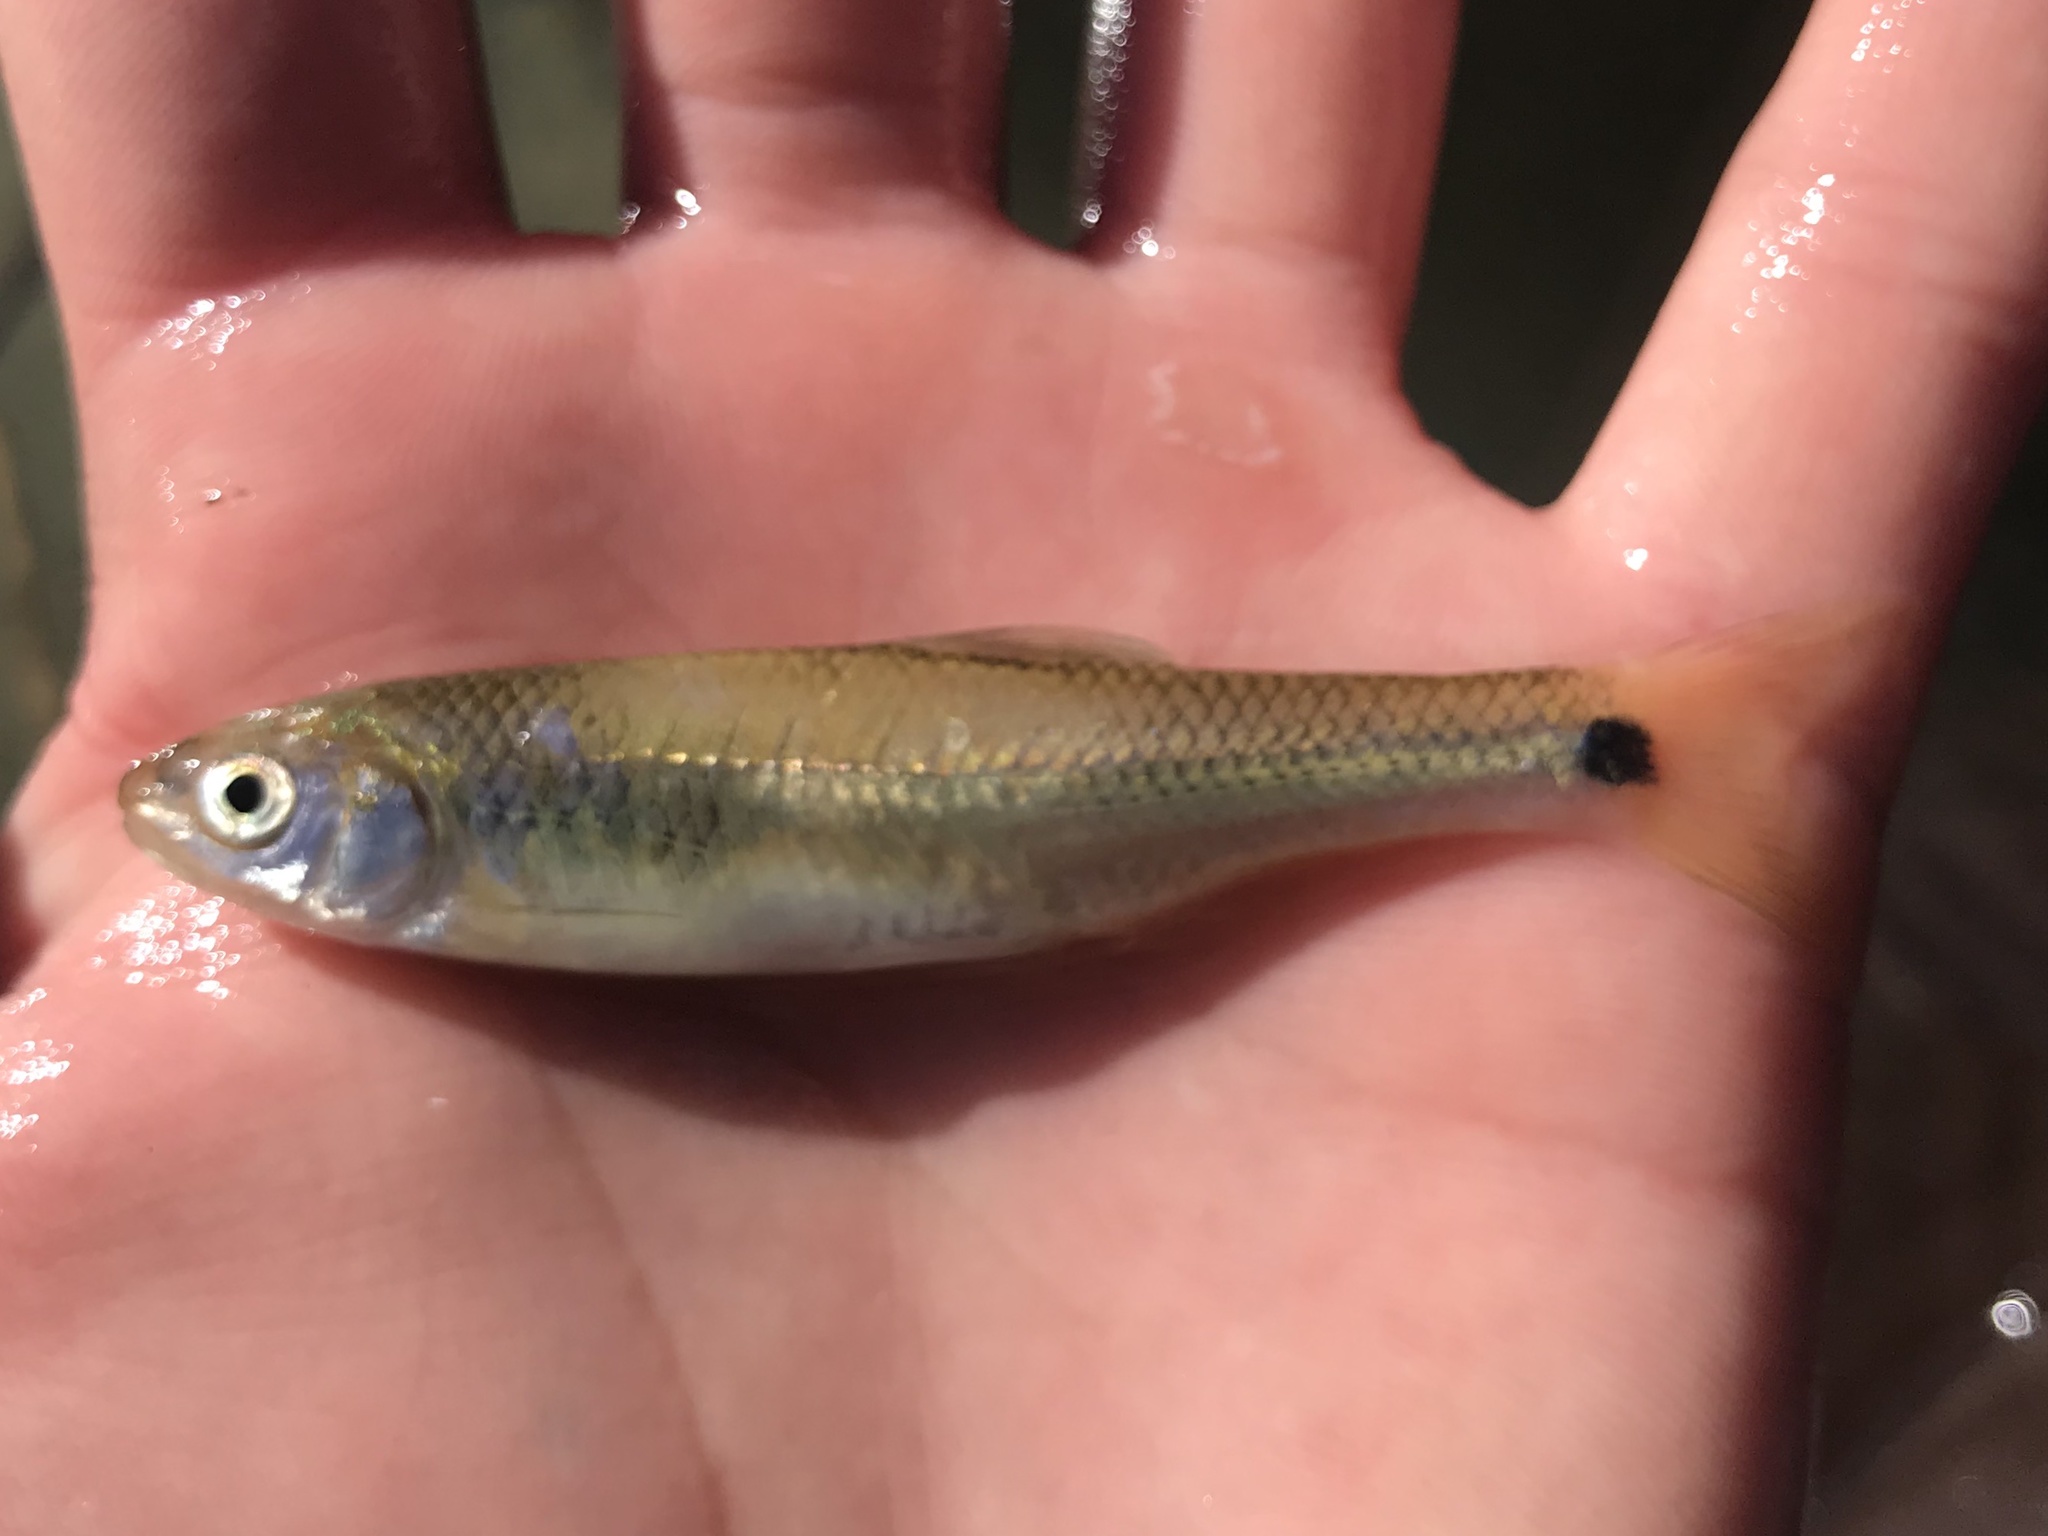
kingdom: Animalia
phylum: Chordata
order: Cypriniformes
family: Cyprinidae
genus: Cyprinella
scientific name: Cyprinella venusta
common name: Blacktail shiner
